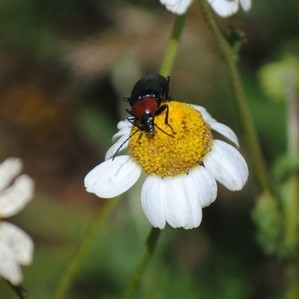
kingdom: Animalia
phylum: Arthropoda
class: Insecta
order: Coleoptera
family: Tenebrionidae
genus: Heliotaurus
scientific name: Heliotaurus ruficollis
